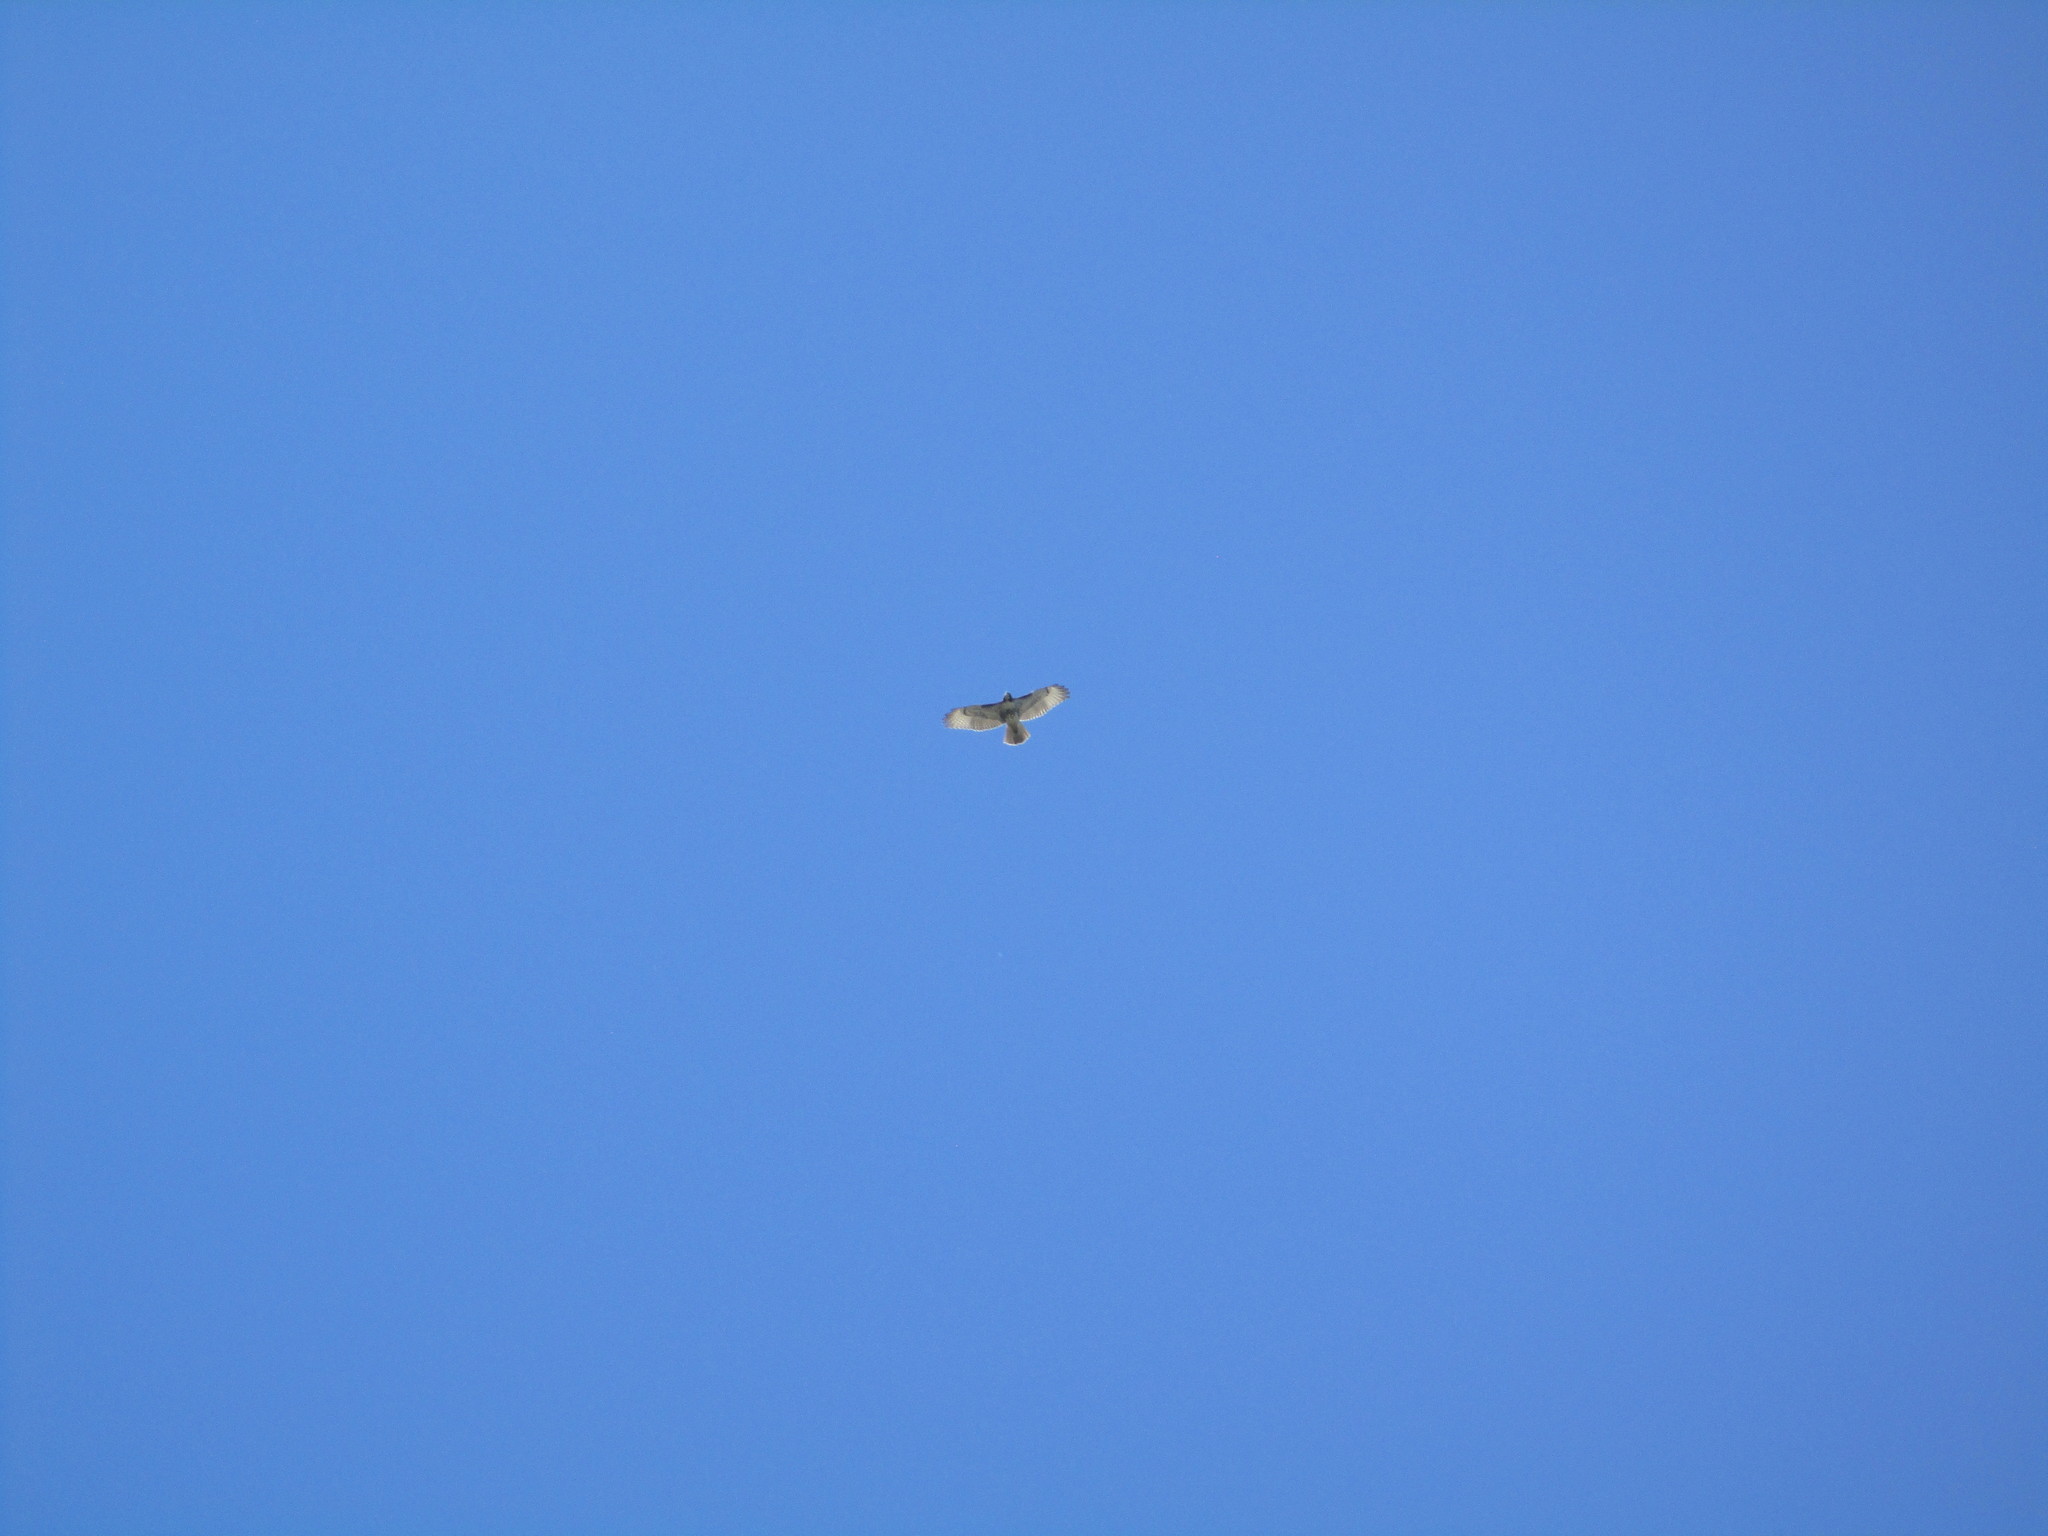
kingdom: Animalia
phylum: Chordata
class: Aves
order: Accipitriformes
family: Accipitridae
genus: Buteo
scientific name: Buteo jamaicensis
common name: Red-tailed hawk
